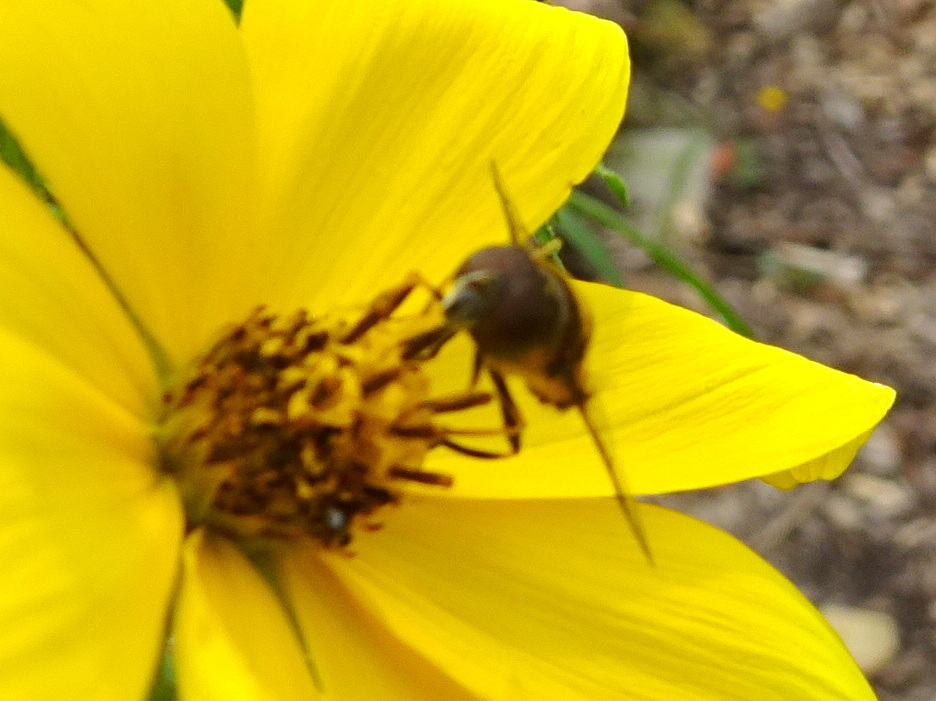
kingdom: Animalia
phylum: Arthropoda
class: Insecta
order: Diptera
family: Syrphidae
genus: Eristalis
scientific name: Eristalis transversa
